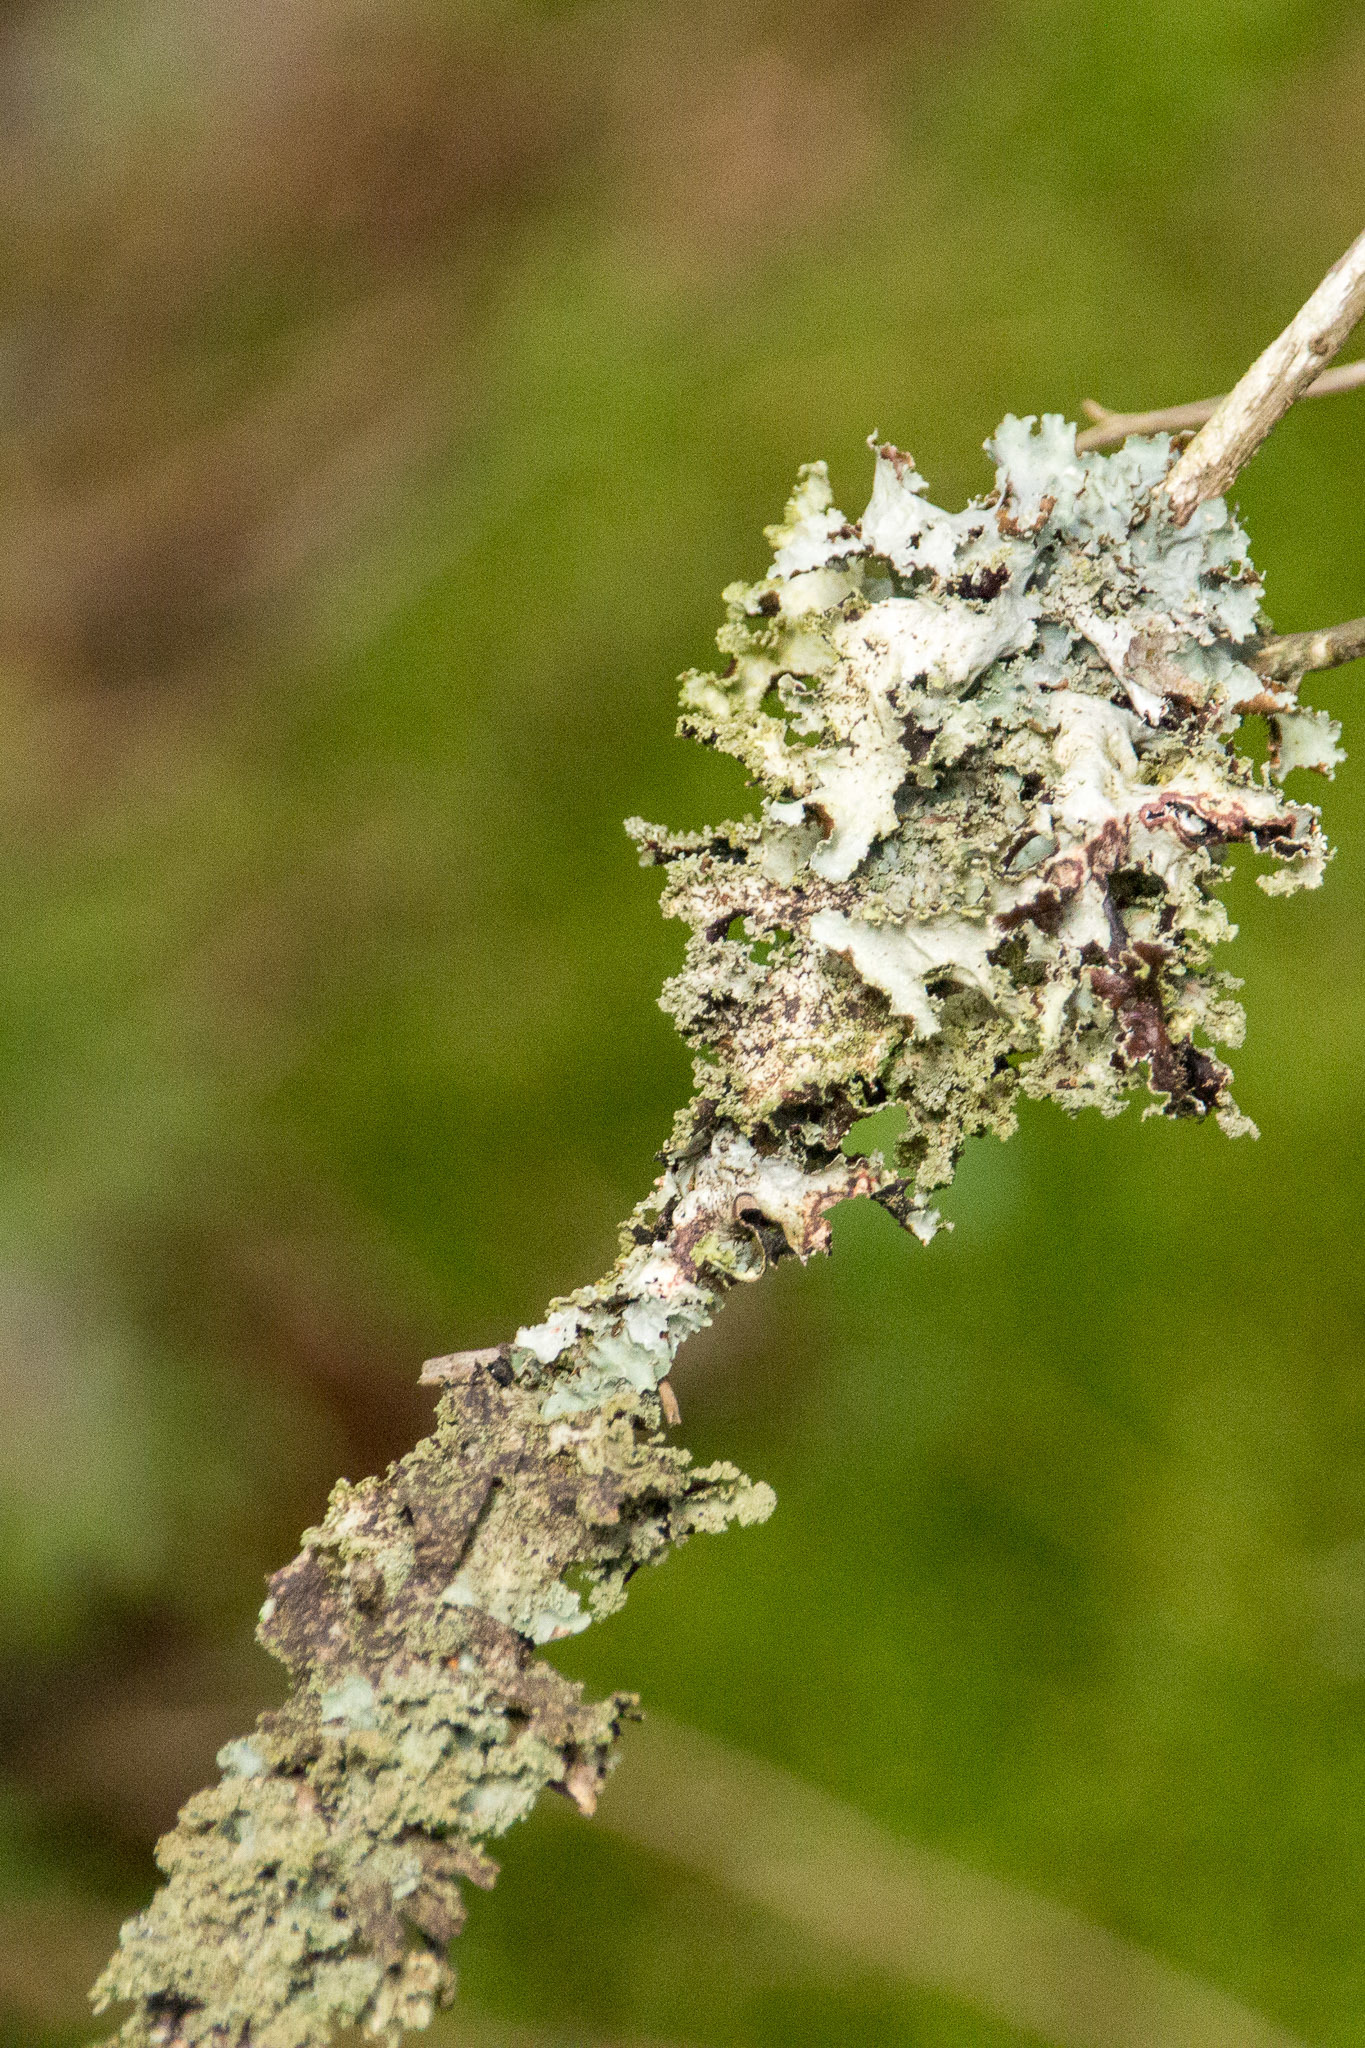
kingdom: Fungi
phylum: Ascomycota
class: Lecanoromycetes
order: Lecanorales
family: Parmeliaceae
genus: Platismatia
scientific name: Platismatia glauca
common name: Varied rag lichen
